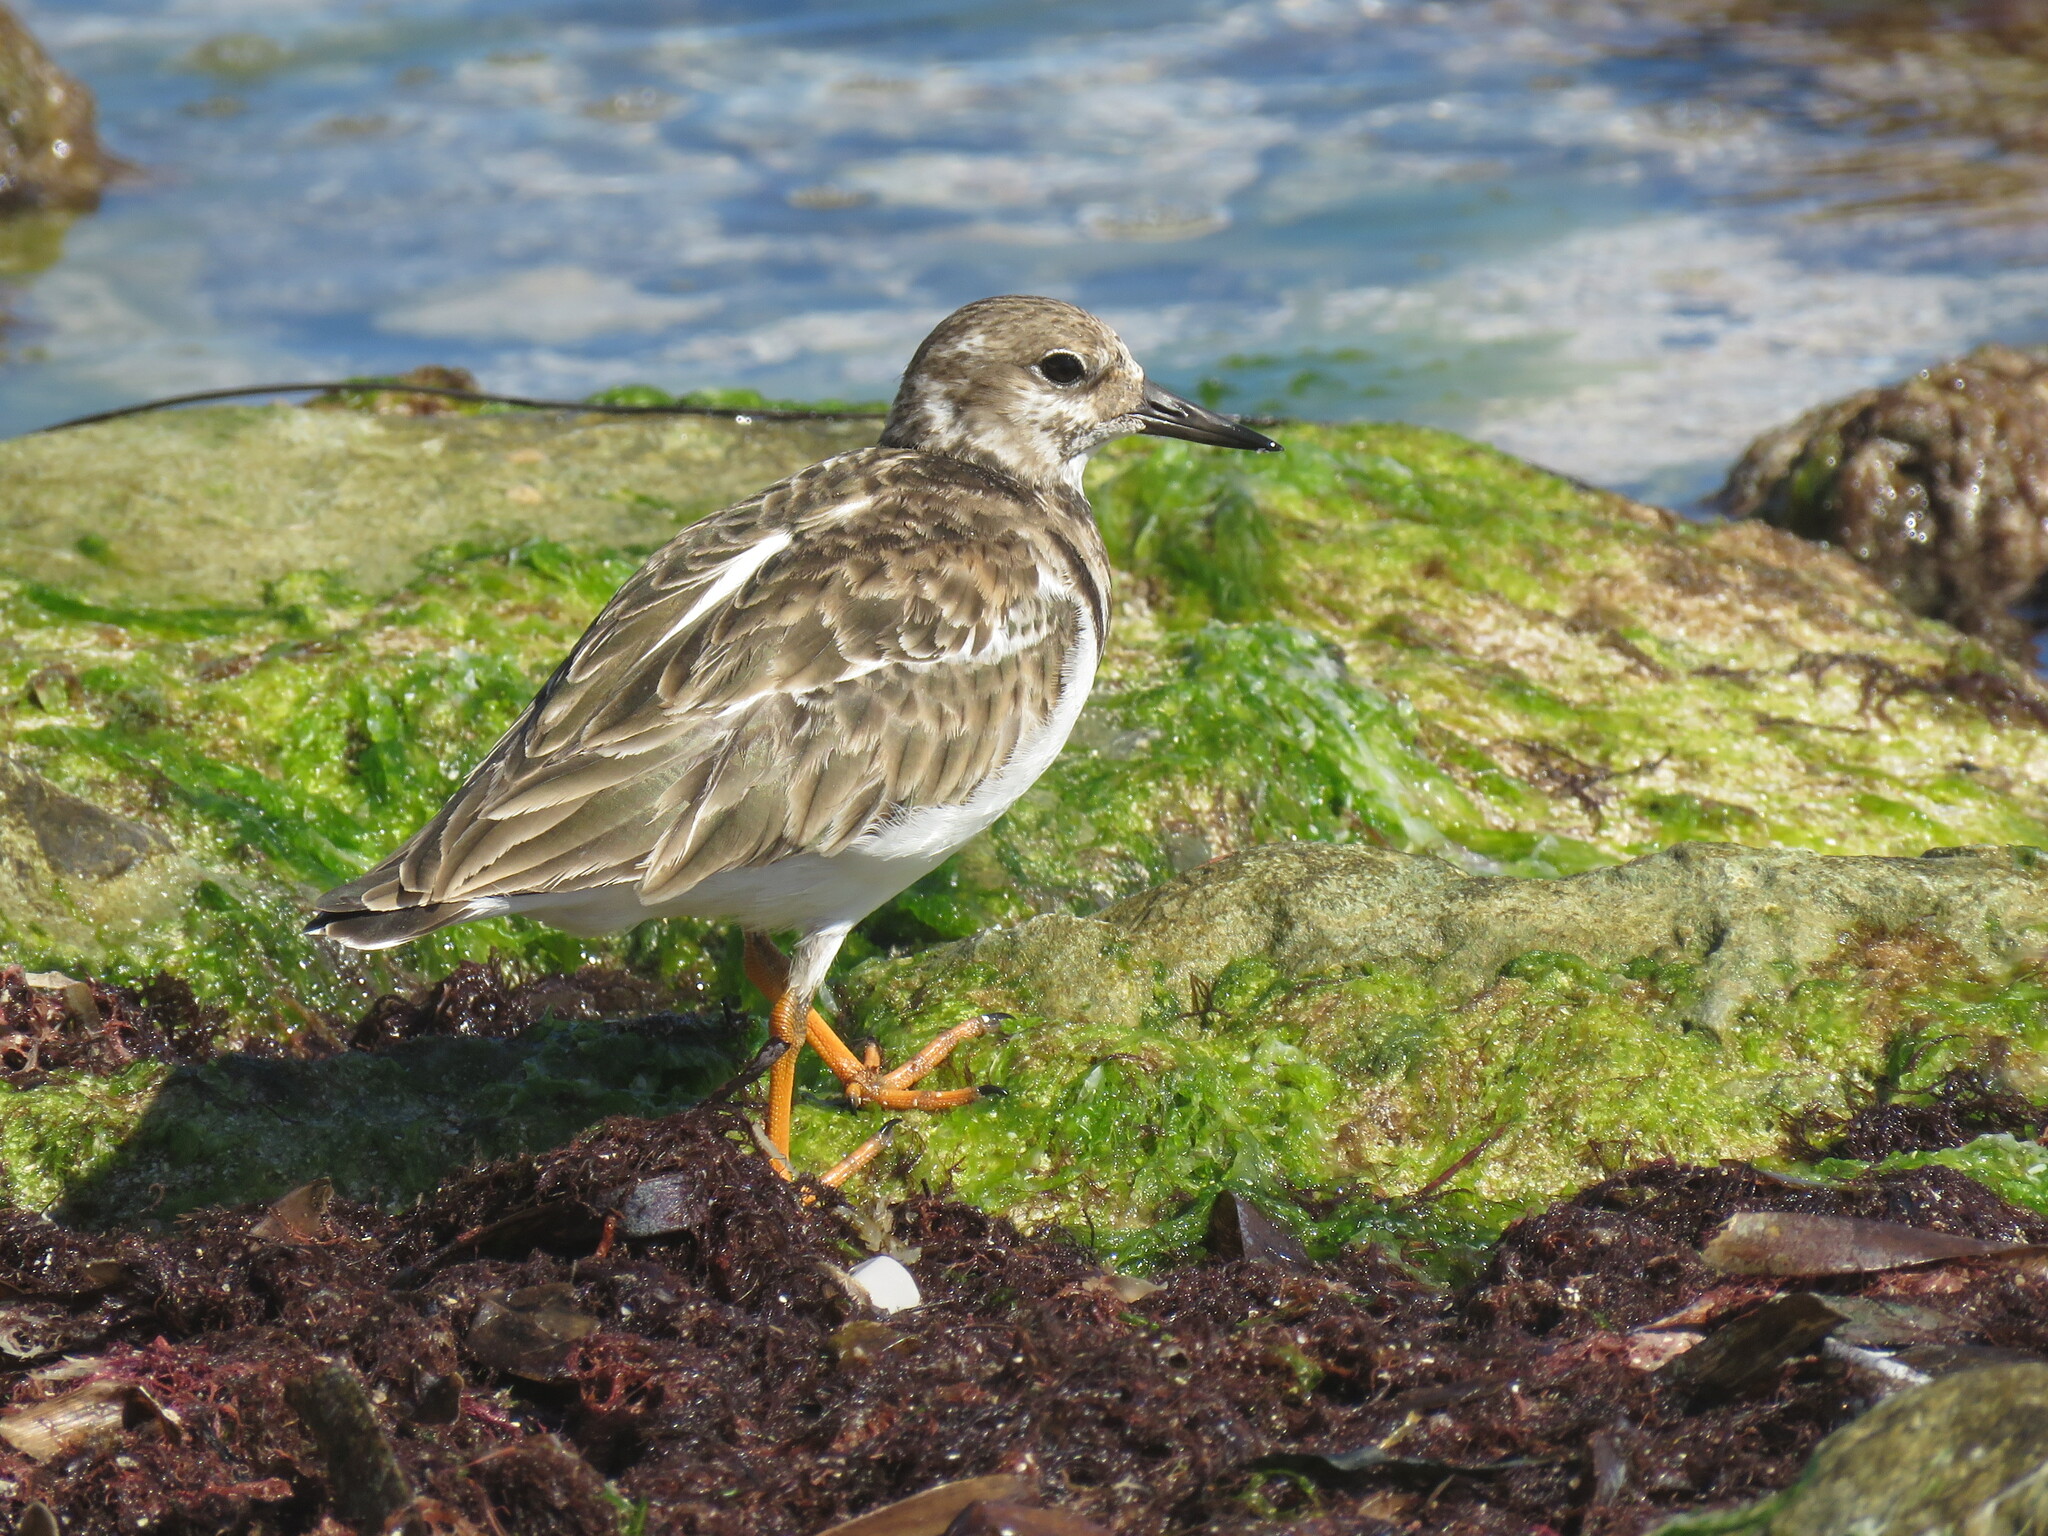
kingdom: Animalia
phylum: Chordata
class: Aves
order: Charadriiformes
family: Scolopacidae
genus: Arenaria
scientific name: Arenaria interpres
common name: Ruddy turnstone
